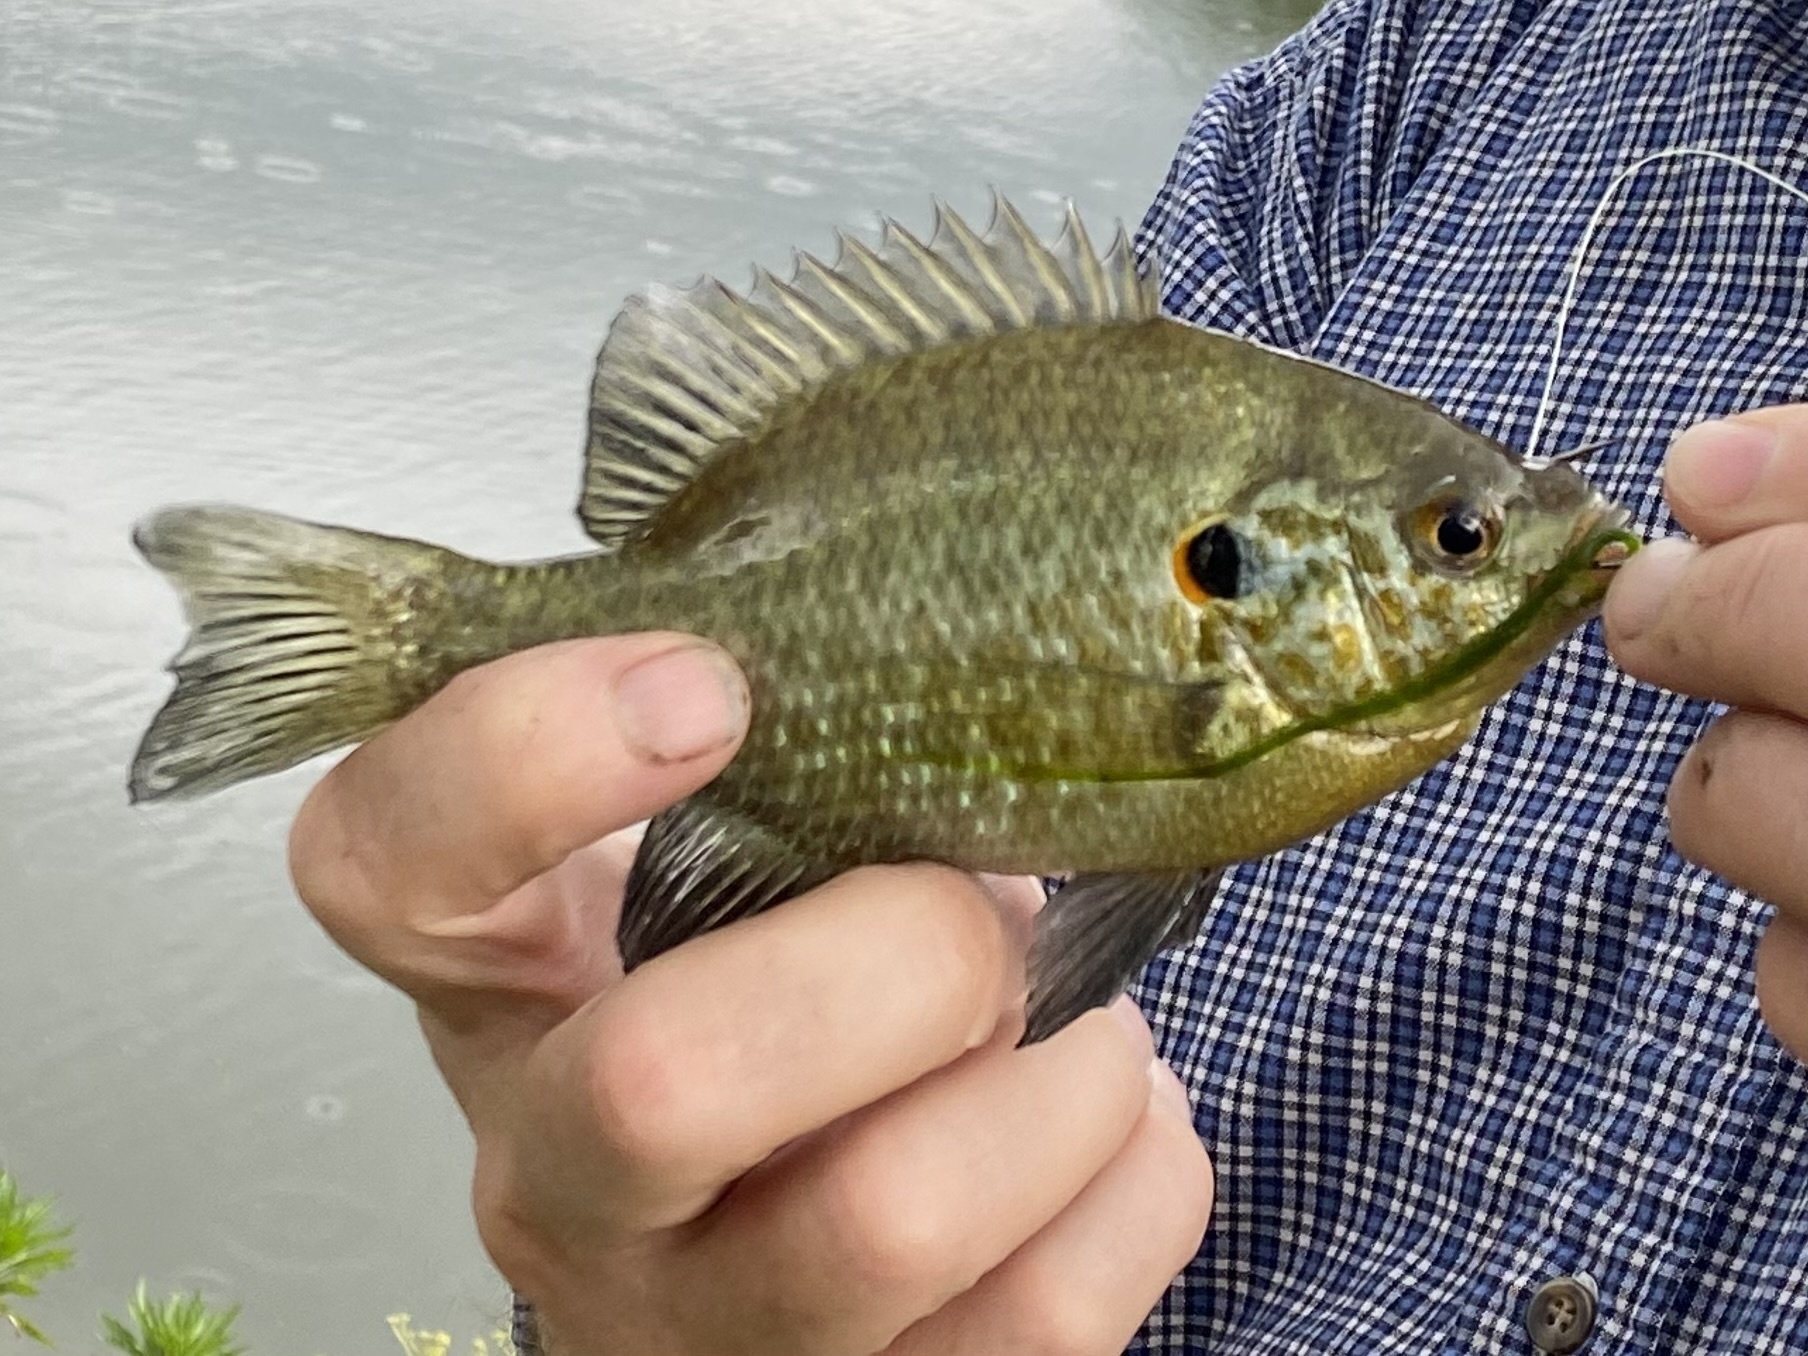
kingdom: Animalia
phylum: Chordata
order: Perciformes
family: Centrarchidae
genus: Lepomis
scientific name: Lepomis microlophus
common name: Redear sunfish
